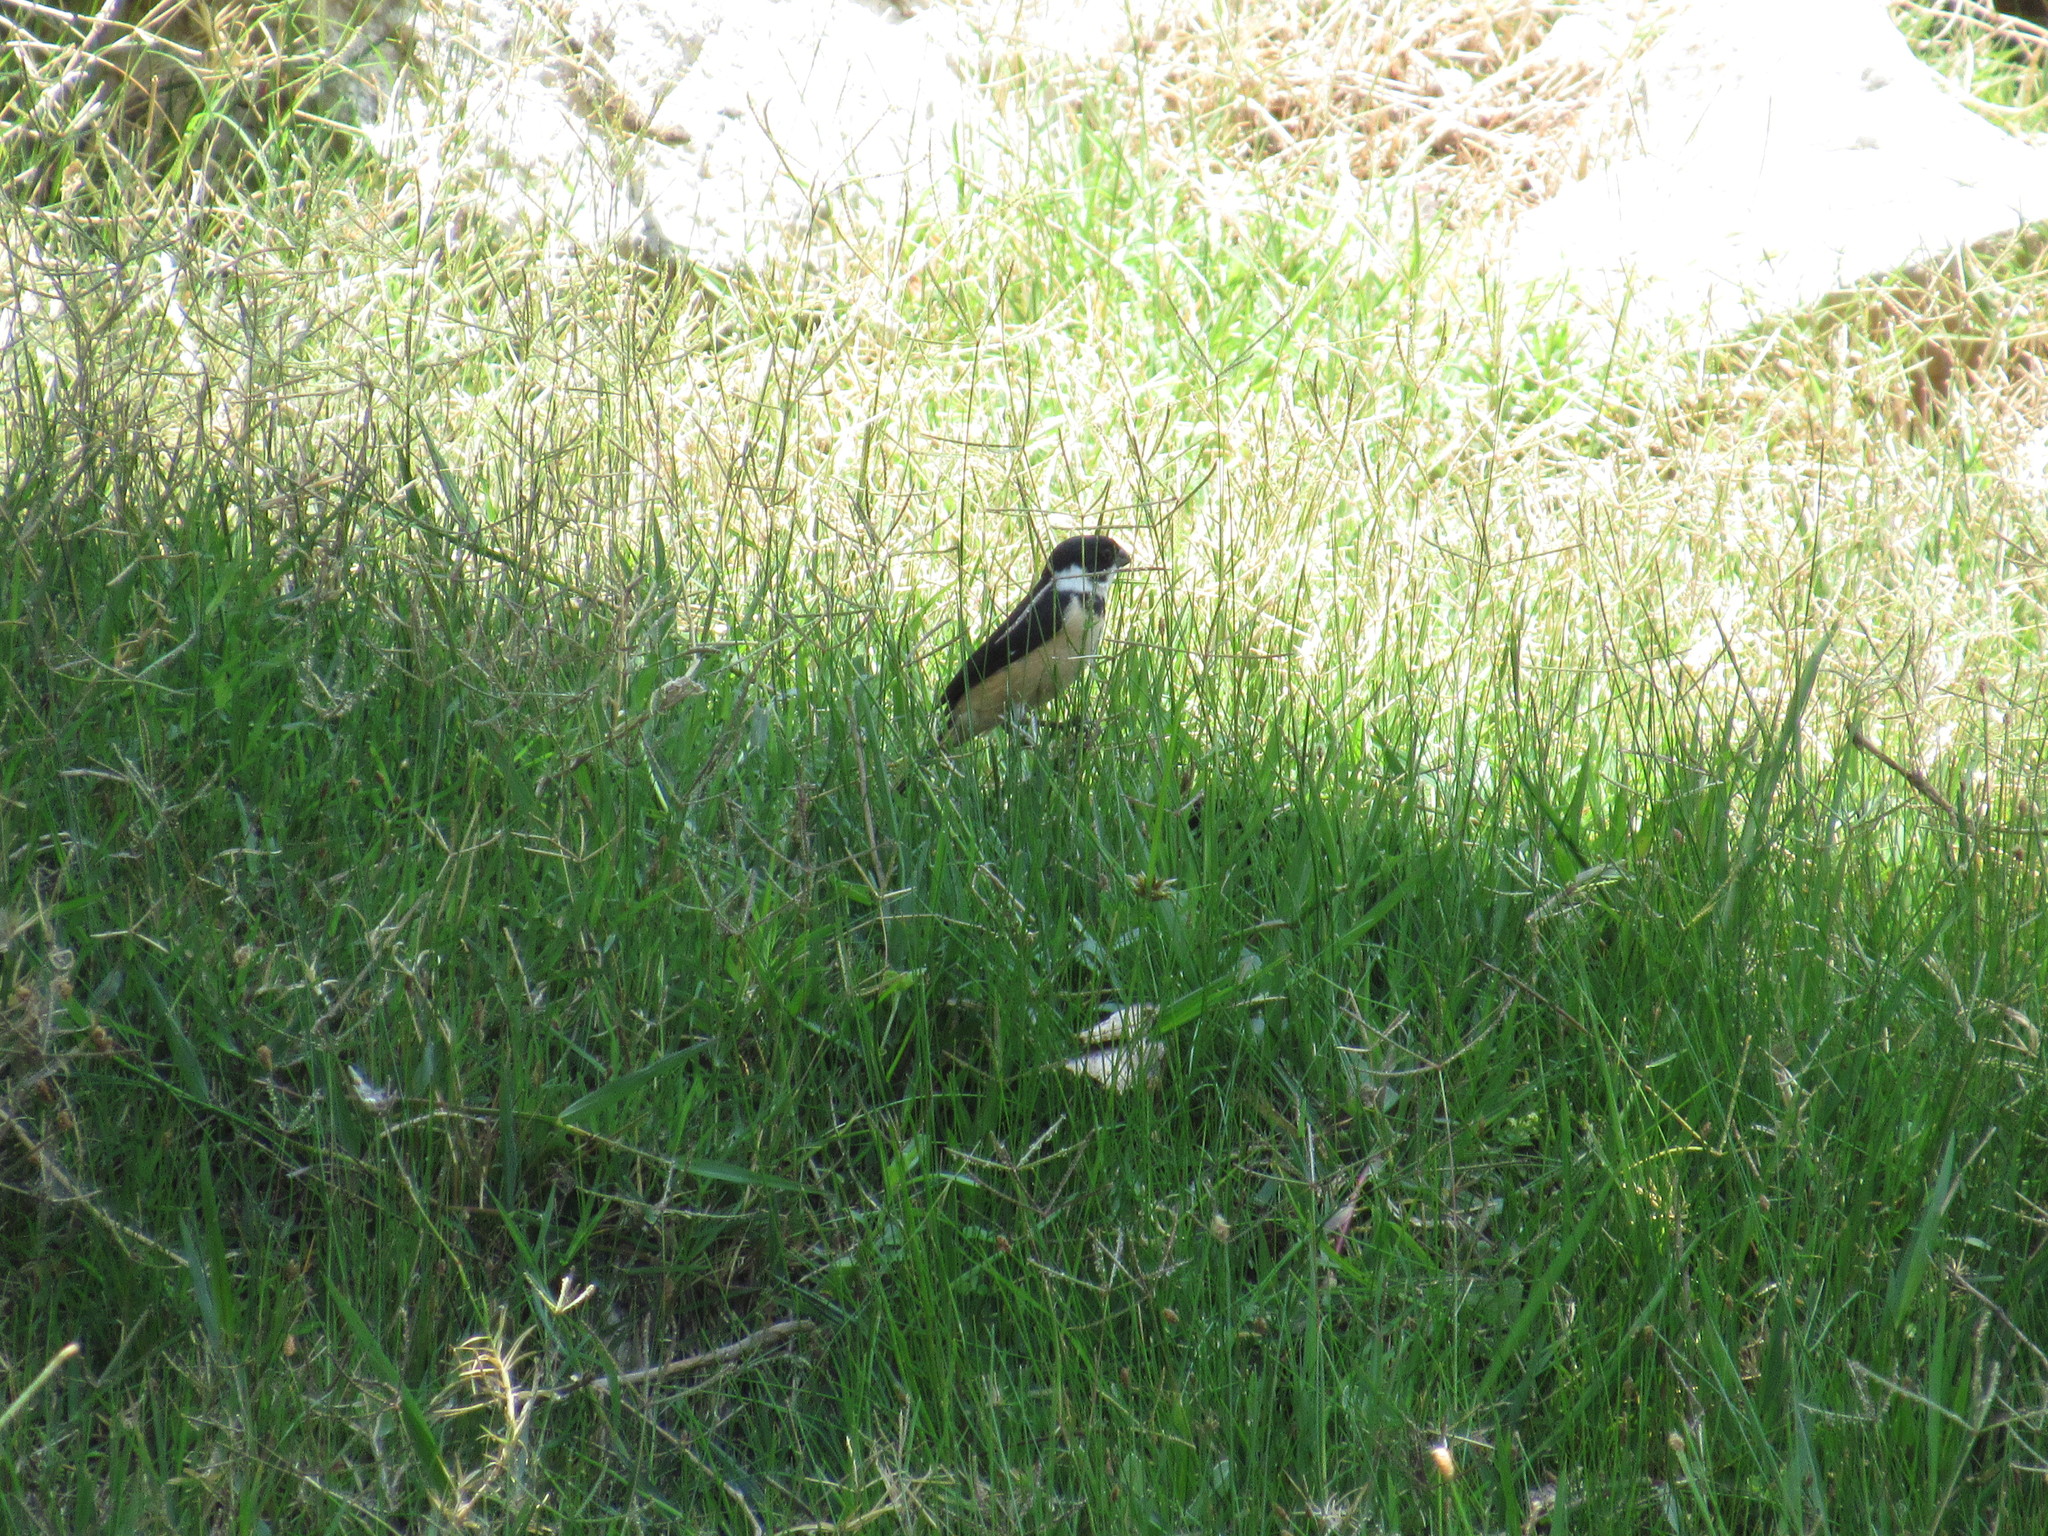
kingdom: Animalia
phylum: Chordata
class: Aves
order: Passeriformes
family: Thraupidae
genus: Sporophila
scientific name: Sporophila torqueola
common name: White-collared seedeater
